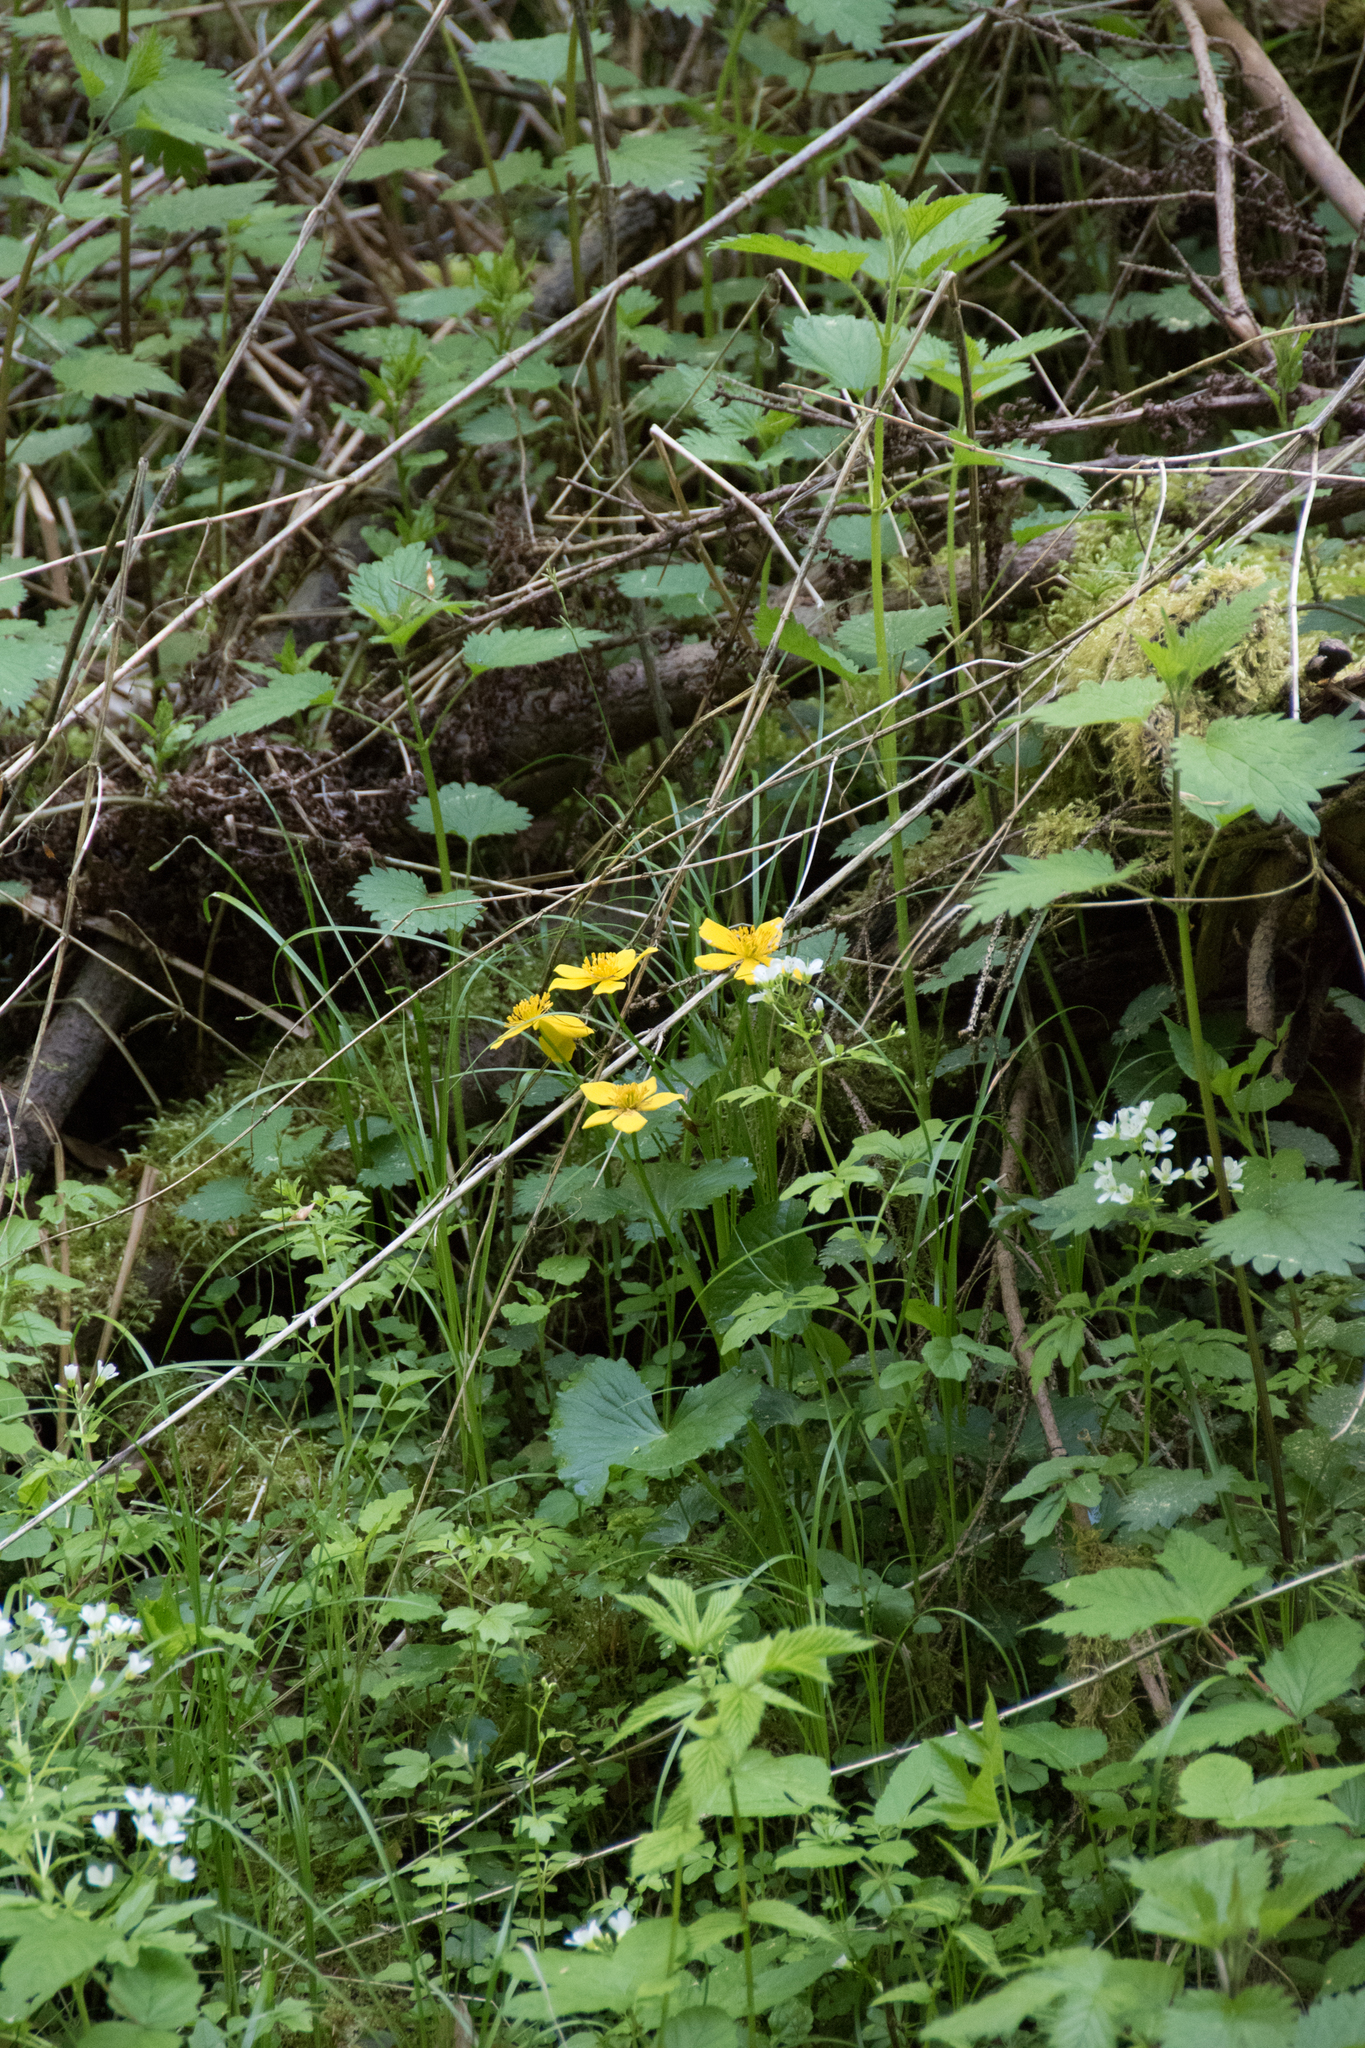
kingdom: Plantae
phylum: Tracheophyta
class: Magnoliopsida
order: Ranunculales
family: Ranunculaceae
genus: Caltha
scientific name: Caltha palustris
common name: Marsh marigold
